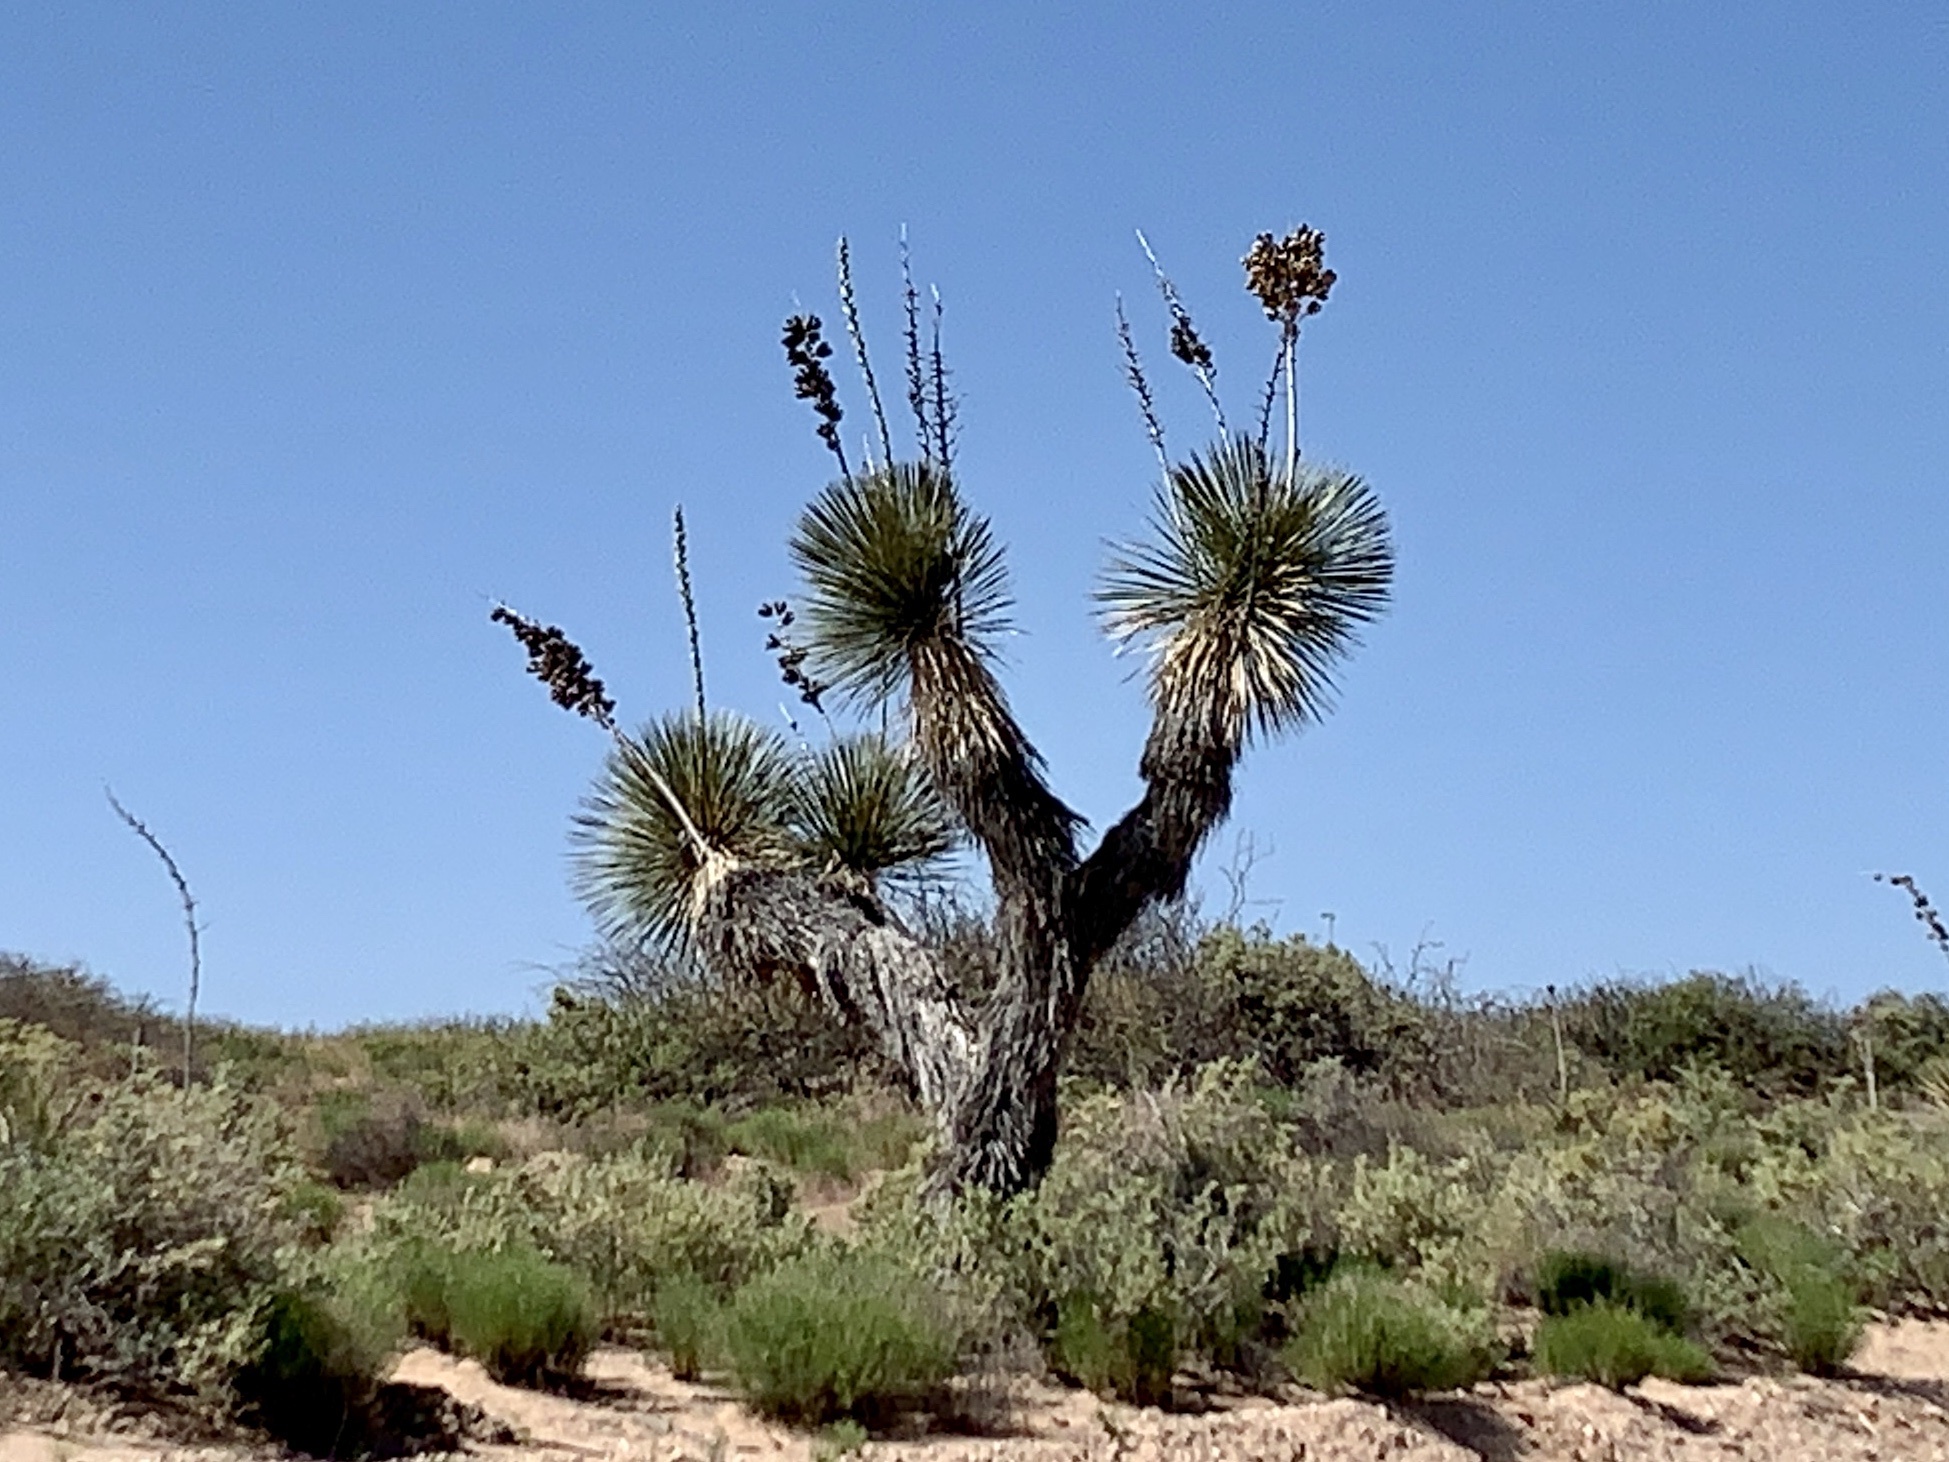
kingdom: Plantae
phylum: Tracheophyta
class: Liliopsida
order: Asparagales
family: Asparagaceae
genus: Yucca
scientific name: Yucca elata
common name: Palmella
